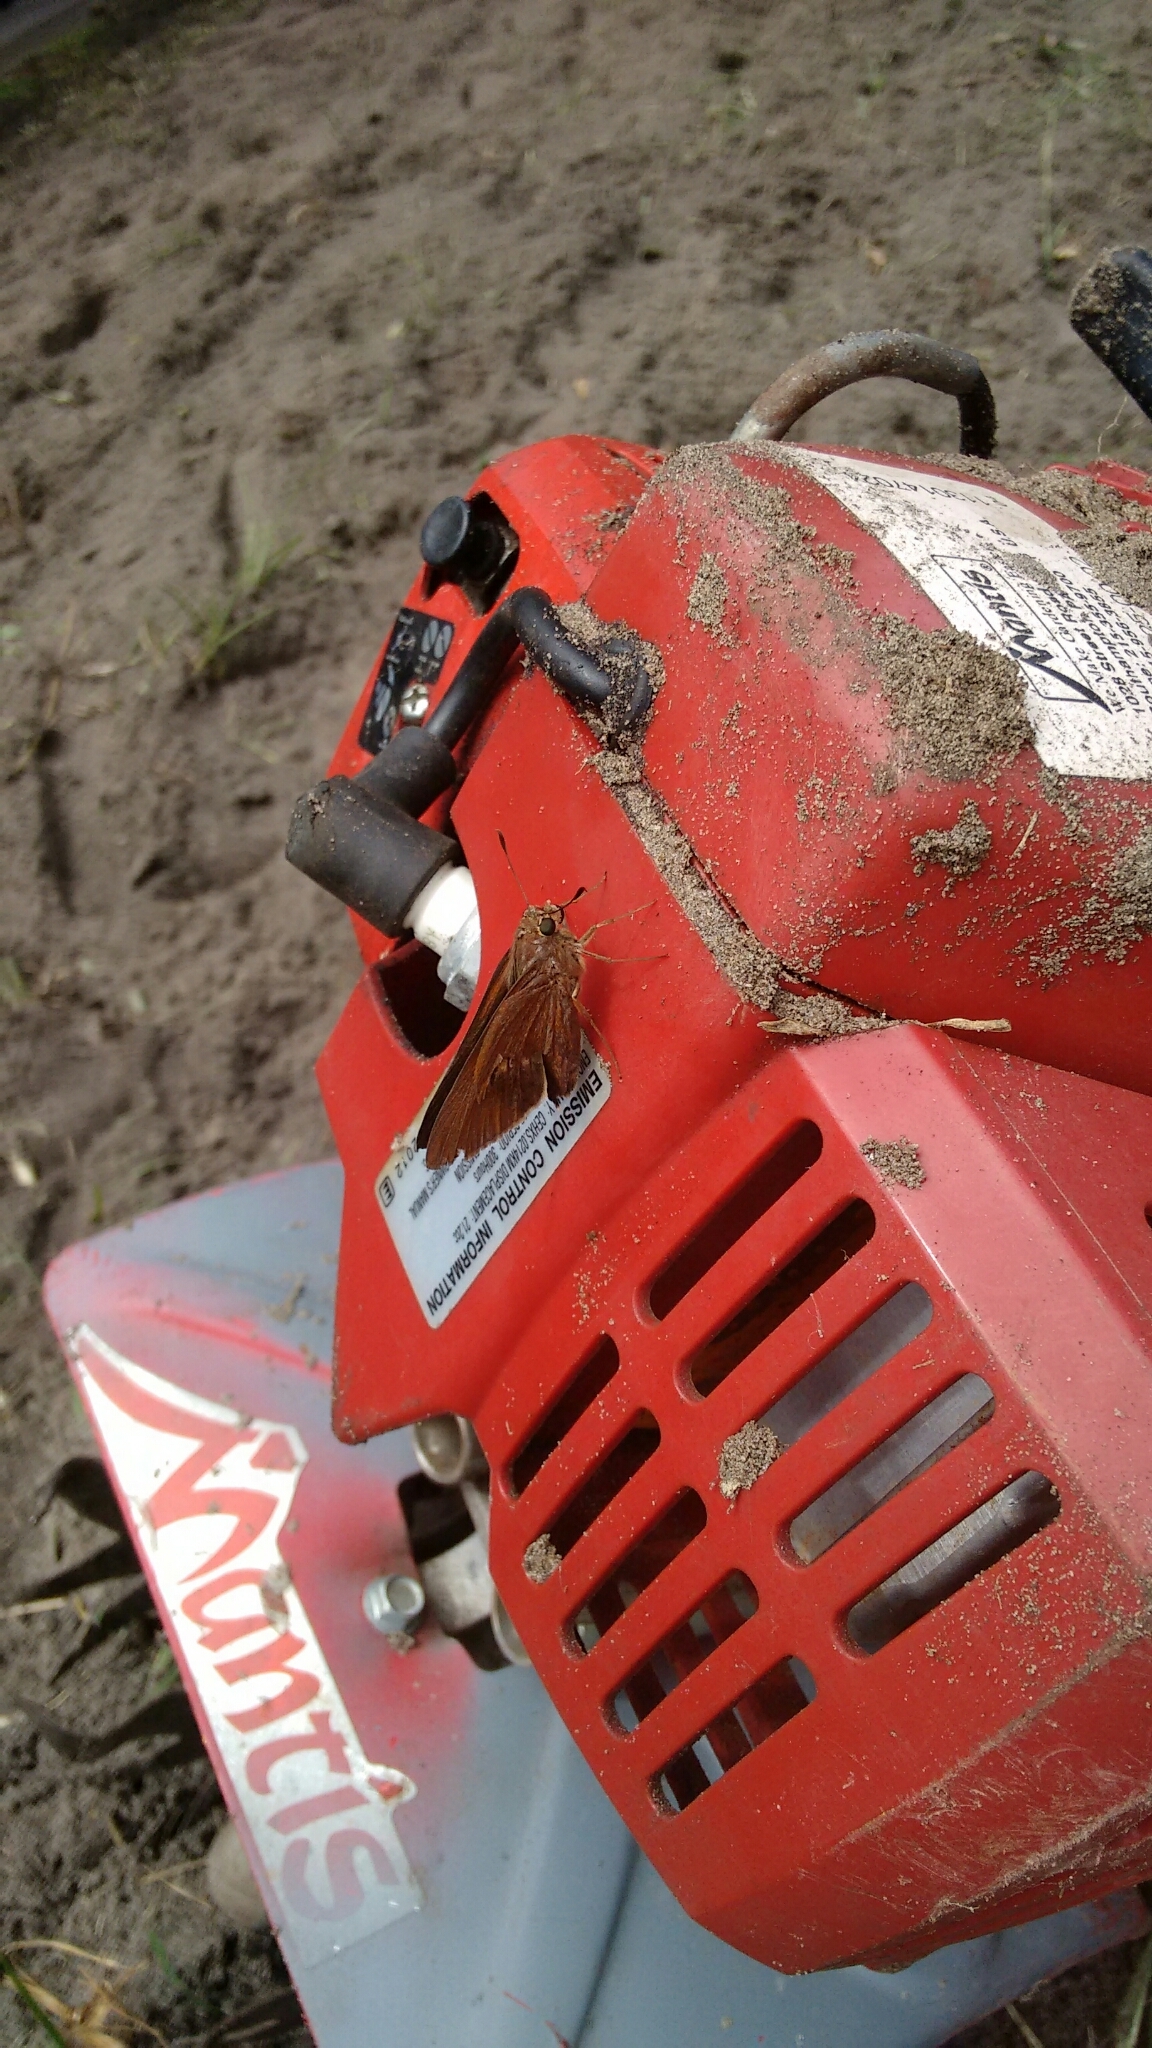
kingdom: Animalia
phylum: Arthropoda
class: Insecta
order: Lepidoptera
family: Hesperiidae
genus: Asbolis
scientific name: Asbolis capucinus
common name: Monk skipper
